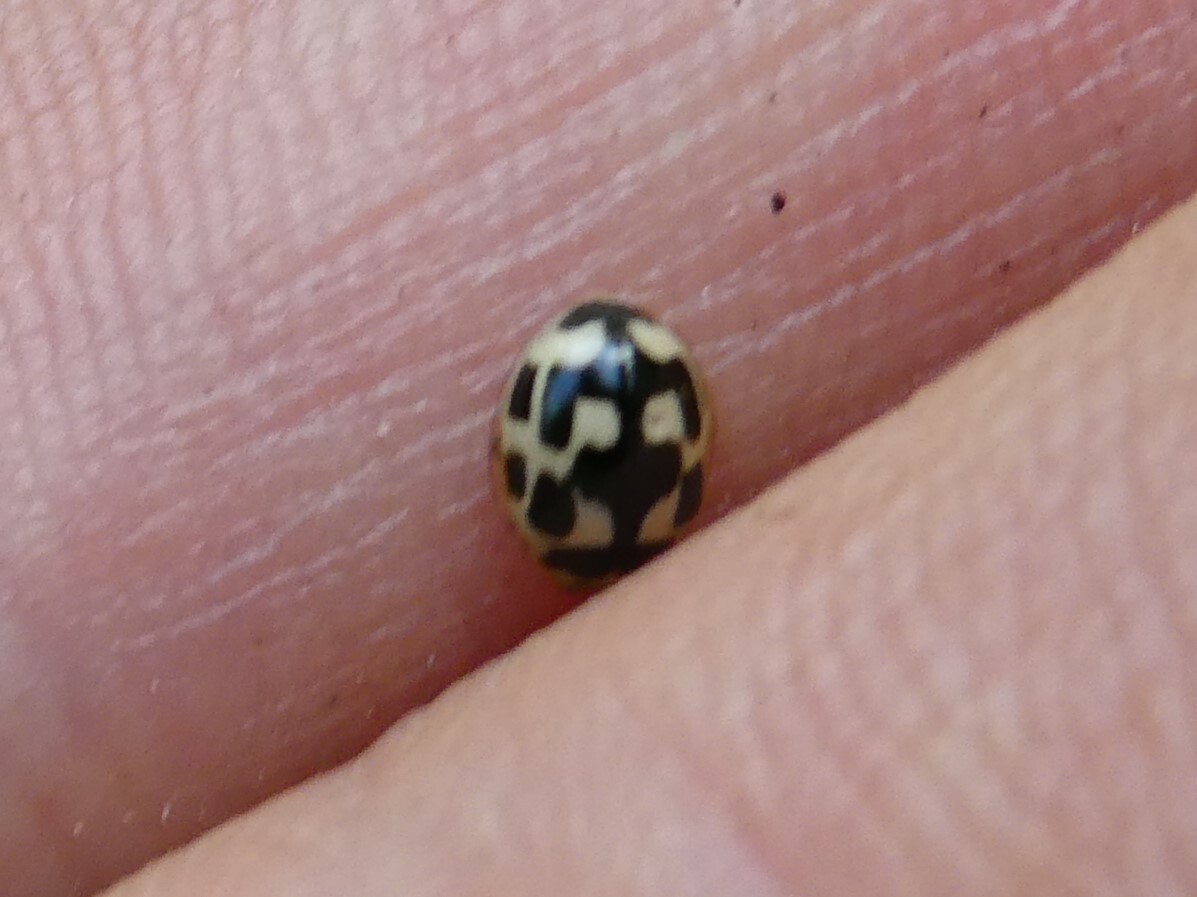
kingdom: Animalia
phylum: Arthropoda
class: Insecta
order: Coleoptera
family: Coccinellidae
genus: Propylaea
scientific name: Propylaea quatuordecimpunctata
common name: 14-spotted ladybird beetle
